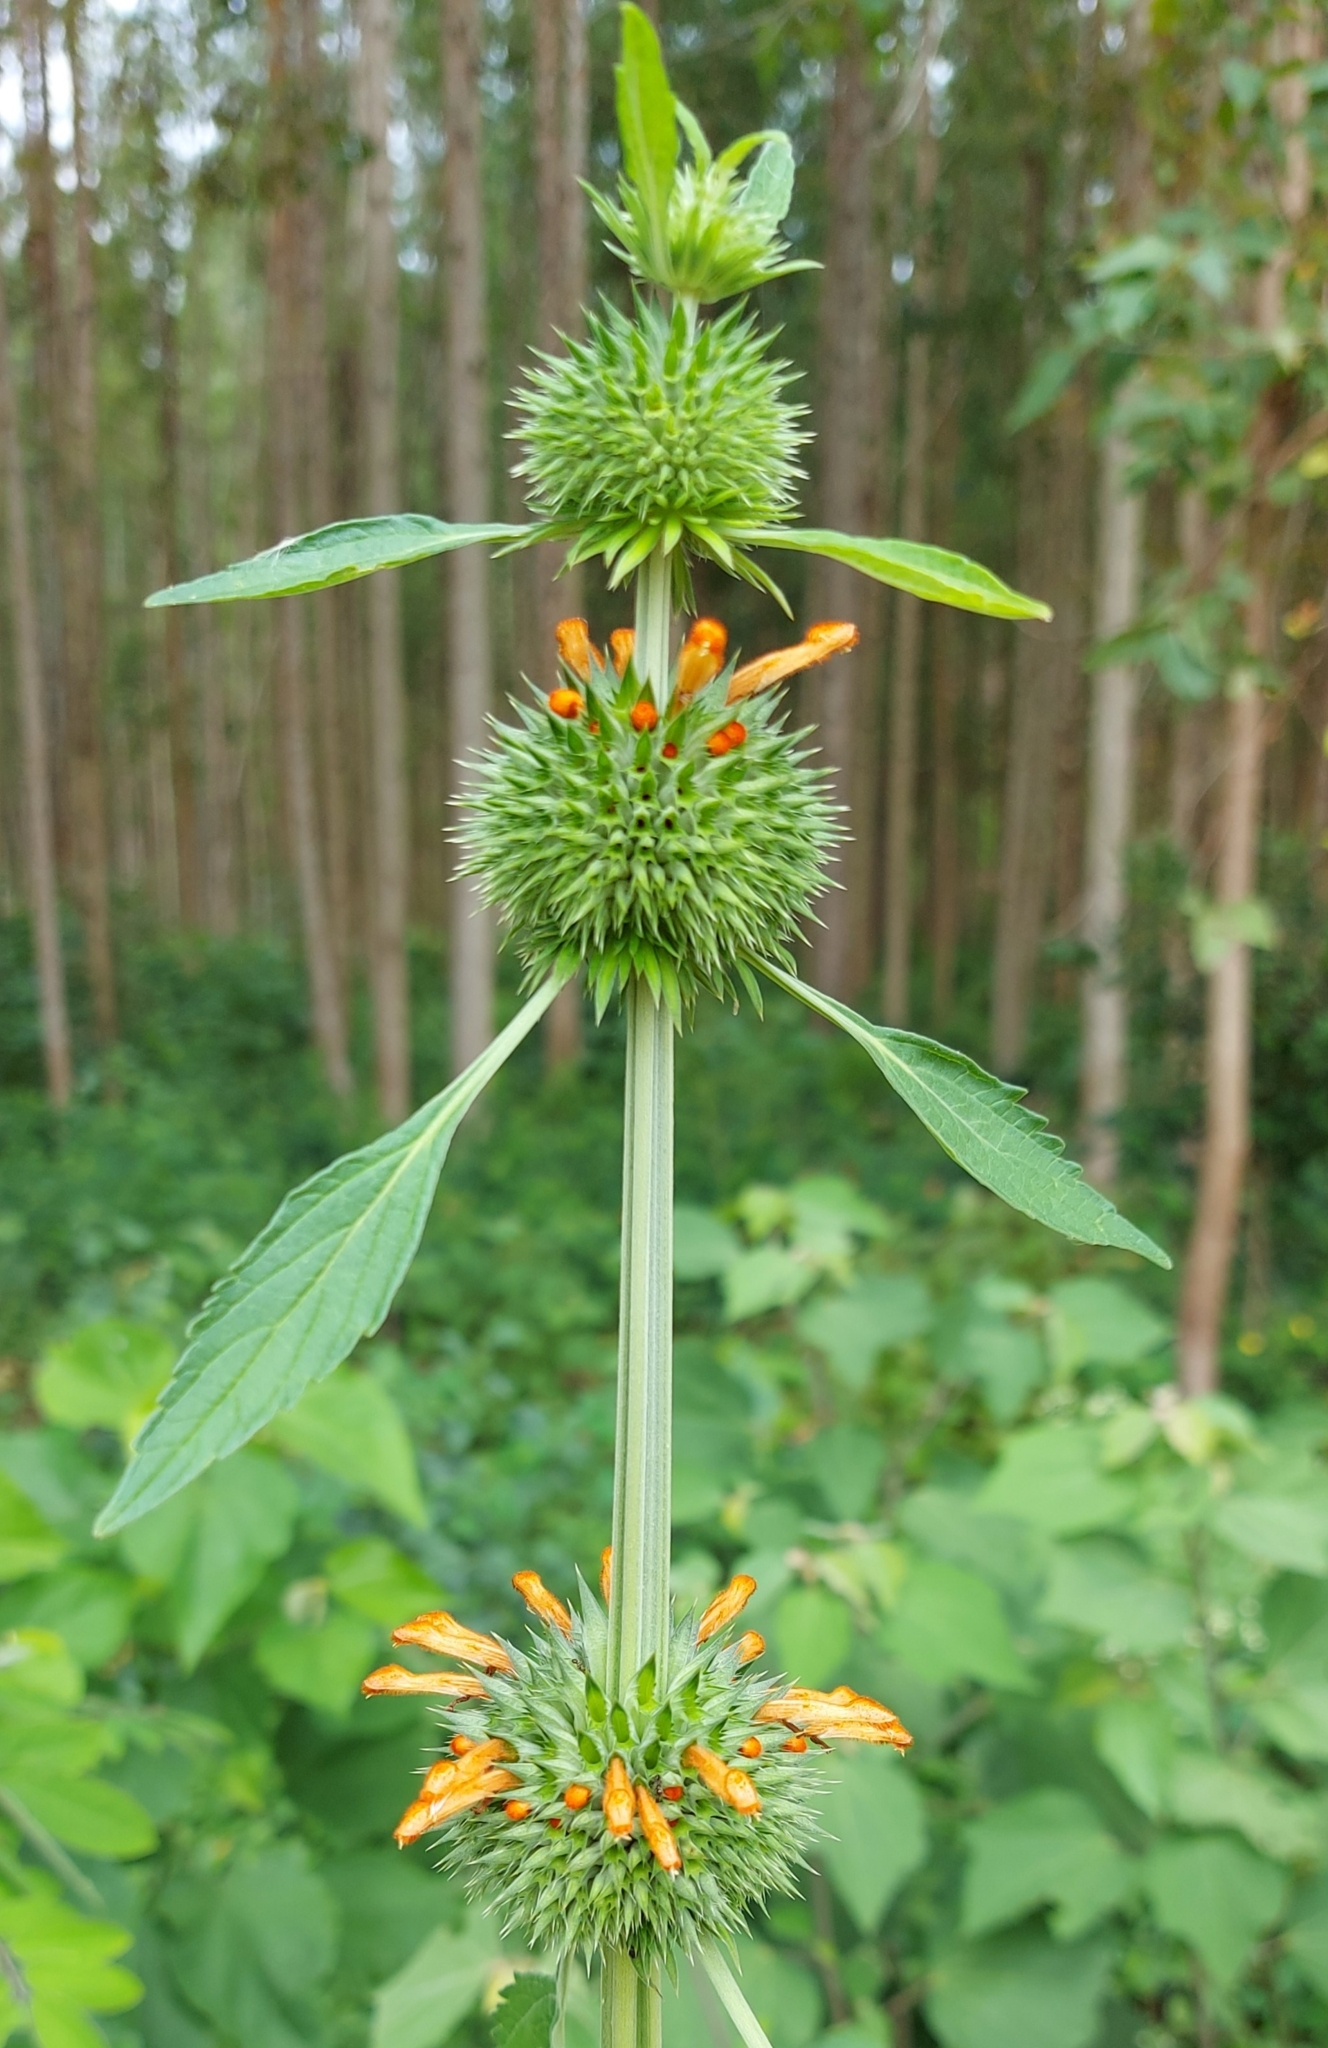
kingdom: Plantae
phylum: Tracheophyta
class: Magnoliopsida
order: Lamiales
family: Lamiaceae
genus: Leonotis
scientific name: Leonotis nepetifolia
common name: Christmas candlestick
